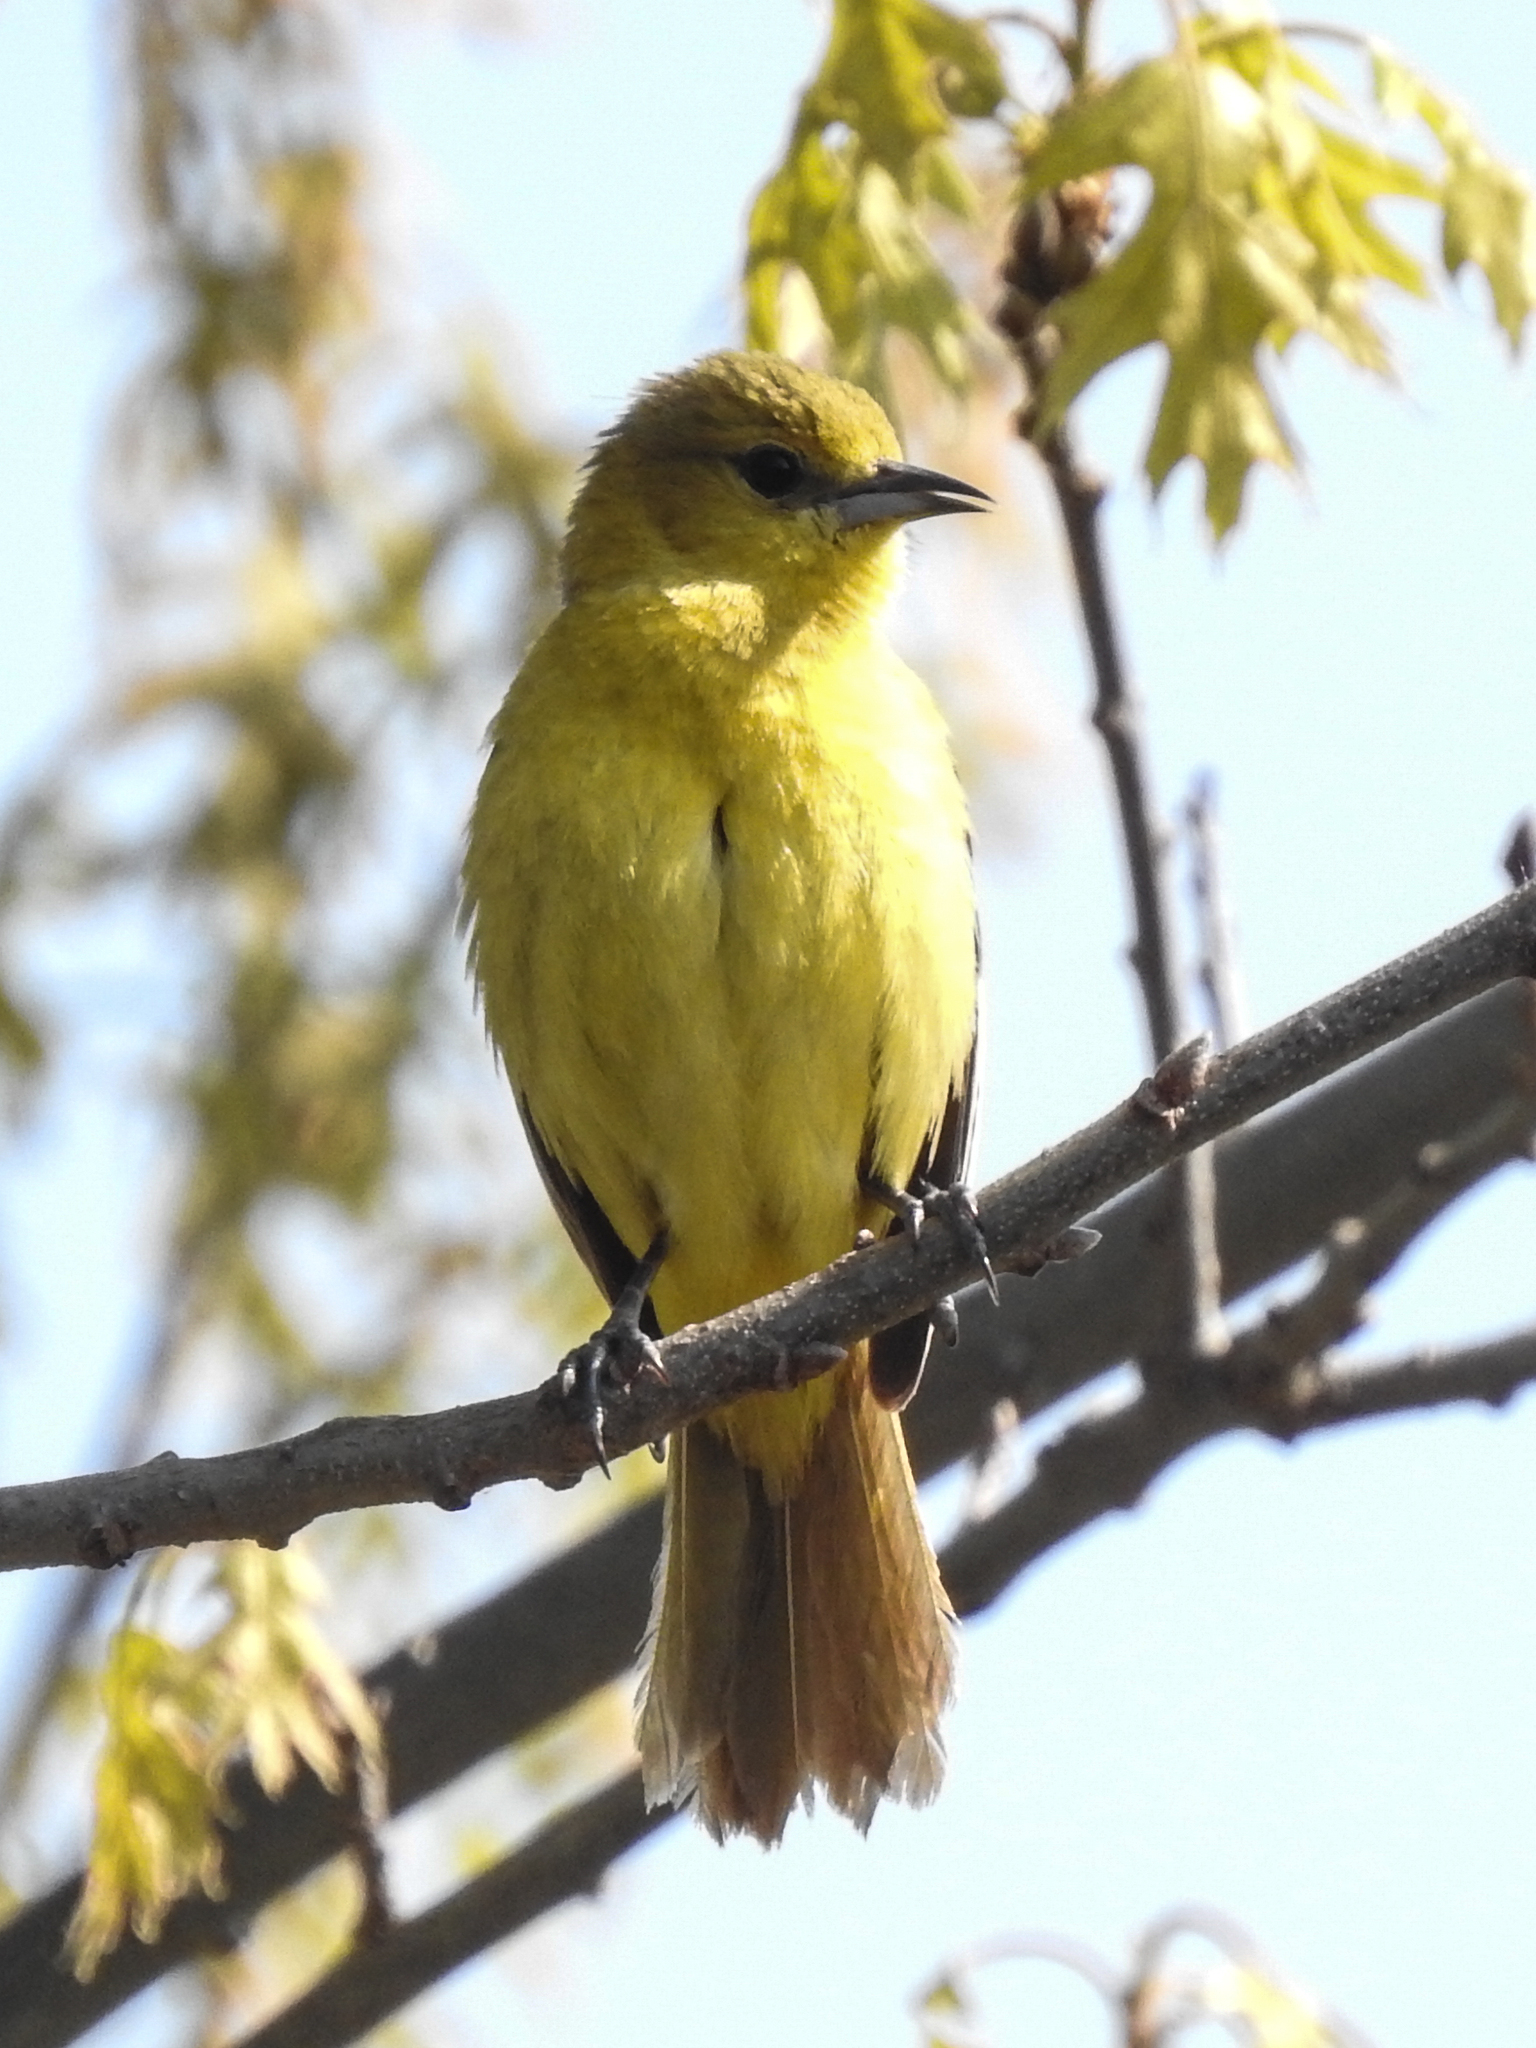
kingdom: Animalia
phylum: Chordata
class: Aves
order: Passeriformes
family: Icteridae
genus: Icterus
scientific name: Icterus spurius
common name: Orchard oriole
